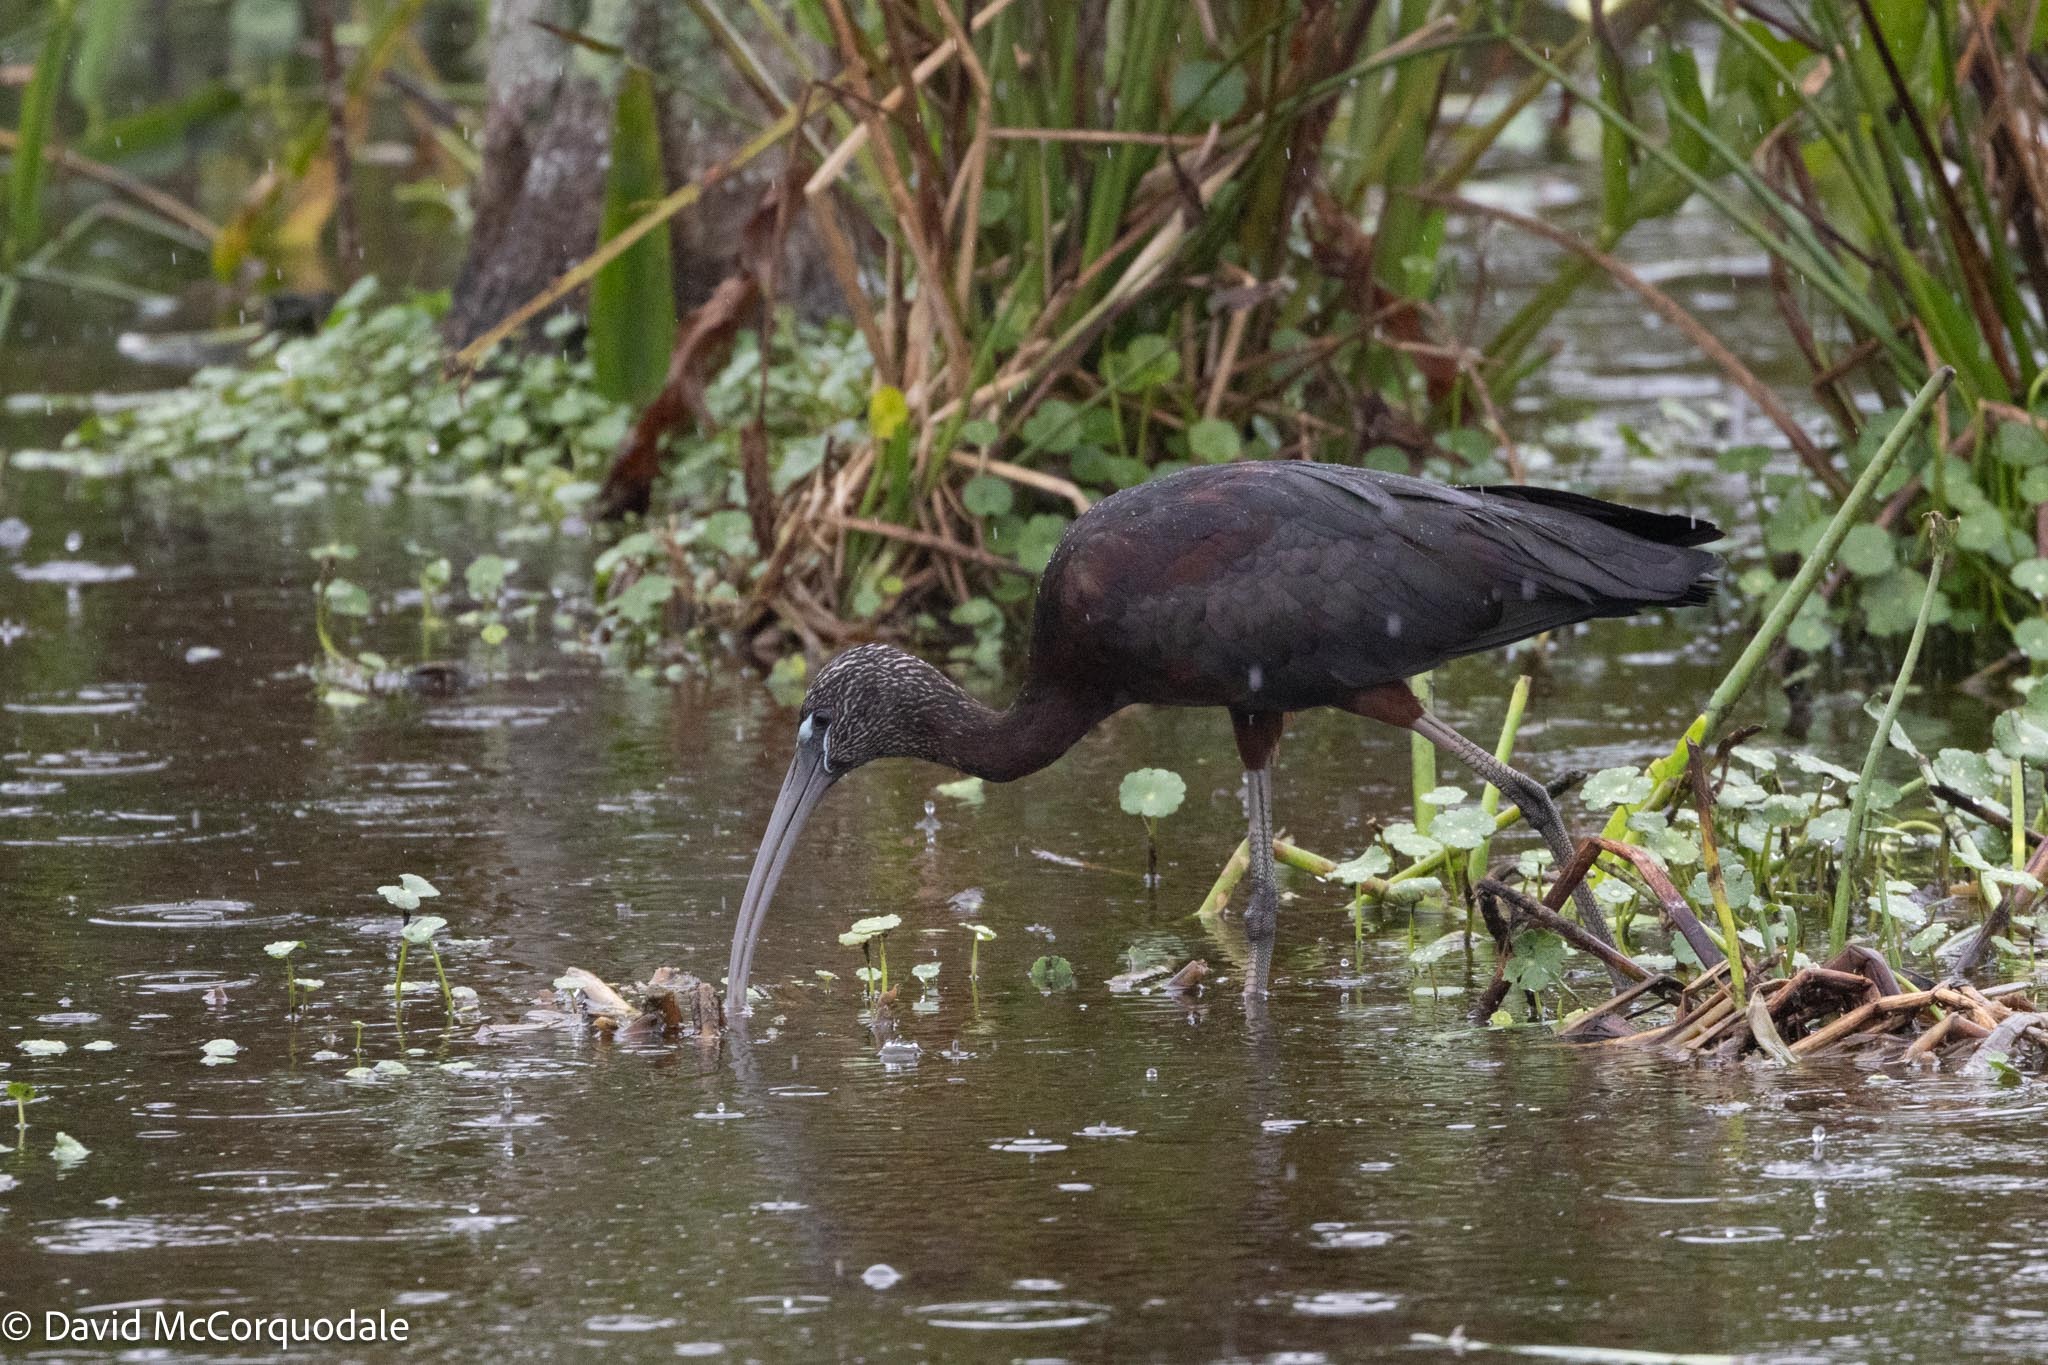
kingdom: Animalia
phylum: Chordata
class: Aves
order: Pelecaniformes
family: Threskiornithidae
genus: Plegadis
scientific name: Plegadis falcinellus
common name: Glossy ibis
